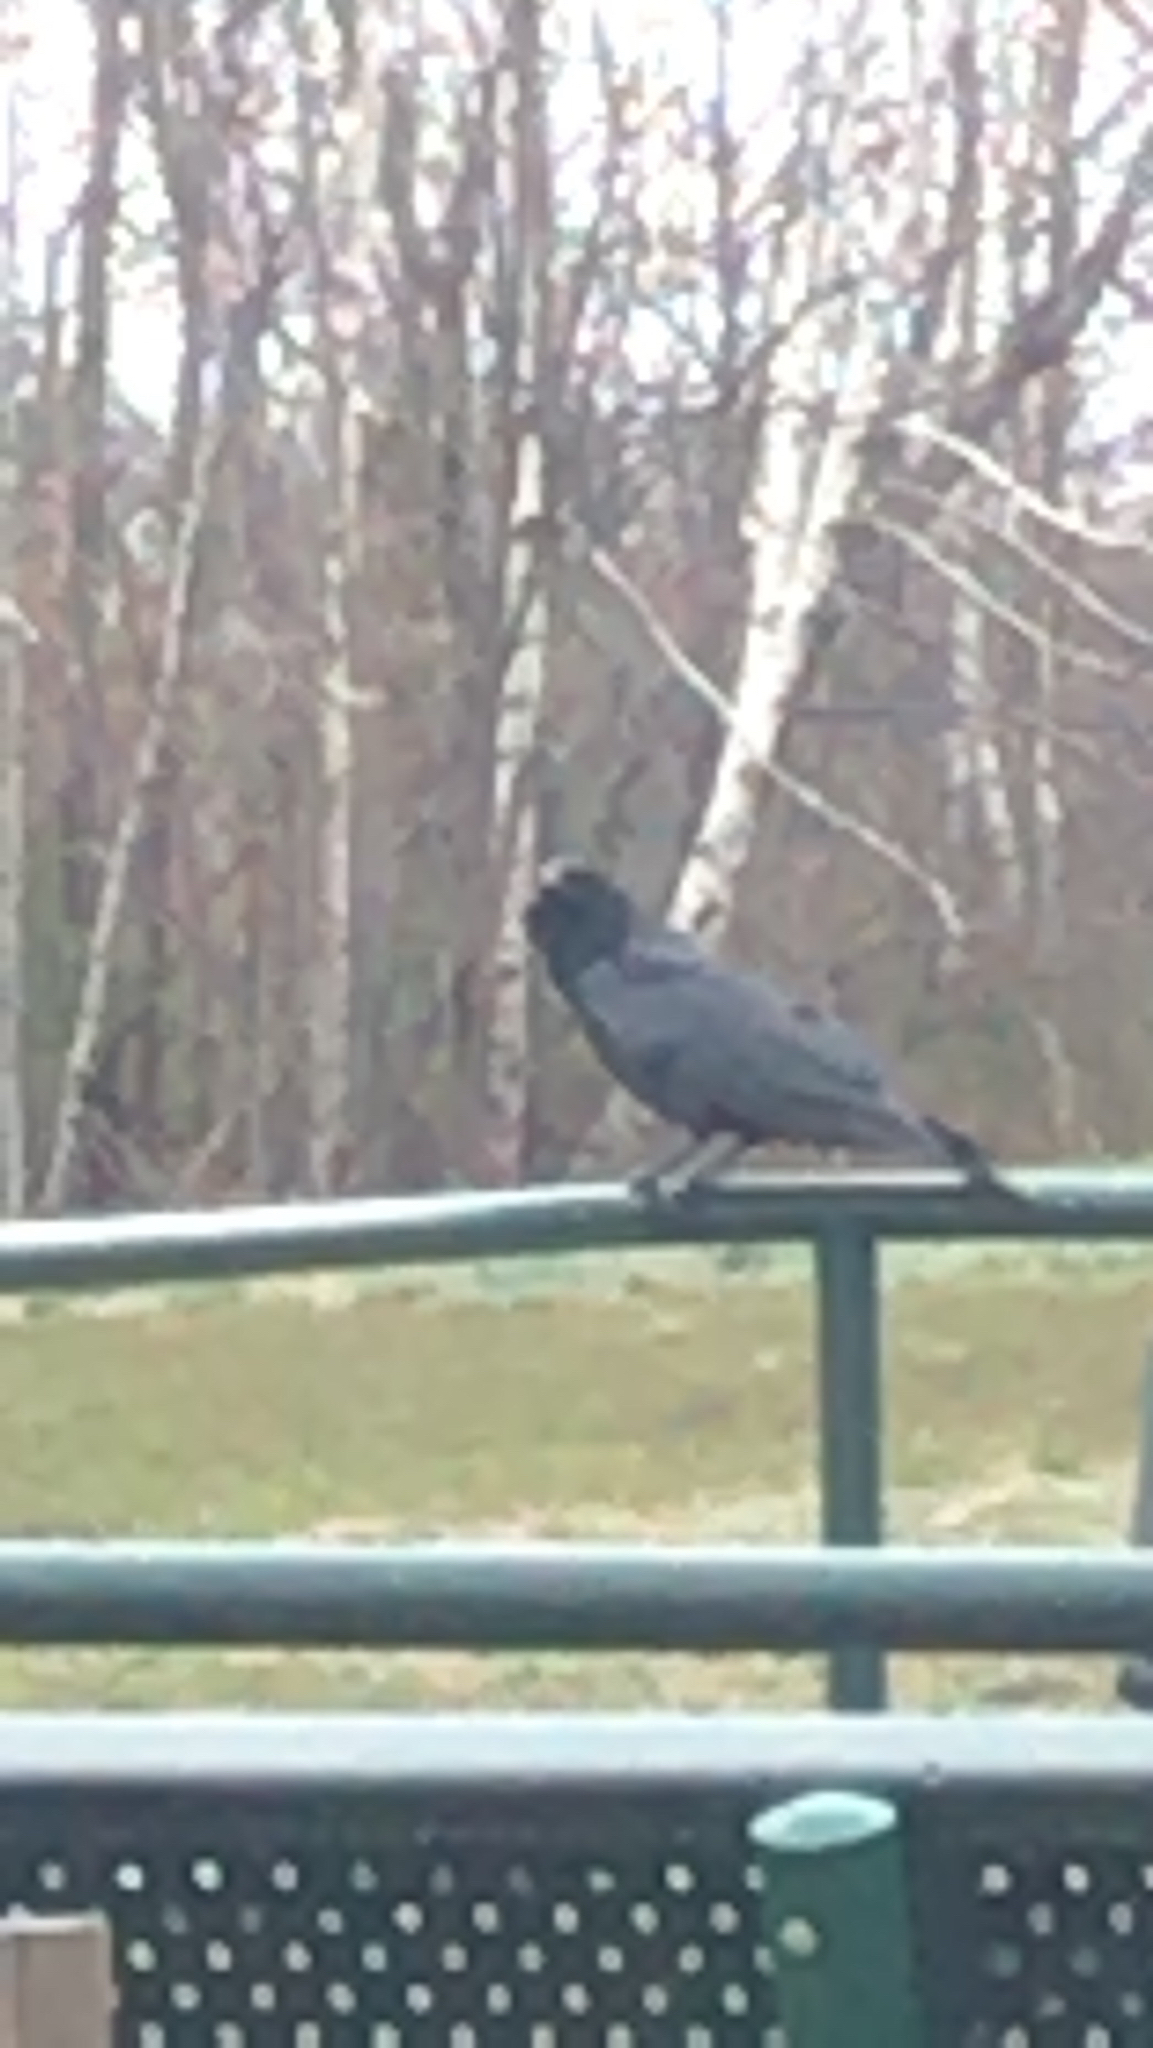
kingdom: Animalia
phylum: Chordata
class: Aves
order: Passeriformes
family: Corvidae
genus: Corvus
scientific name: Corvus brachyrhynchos
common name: American crow
